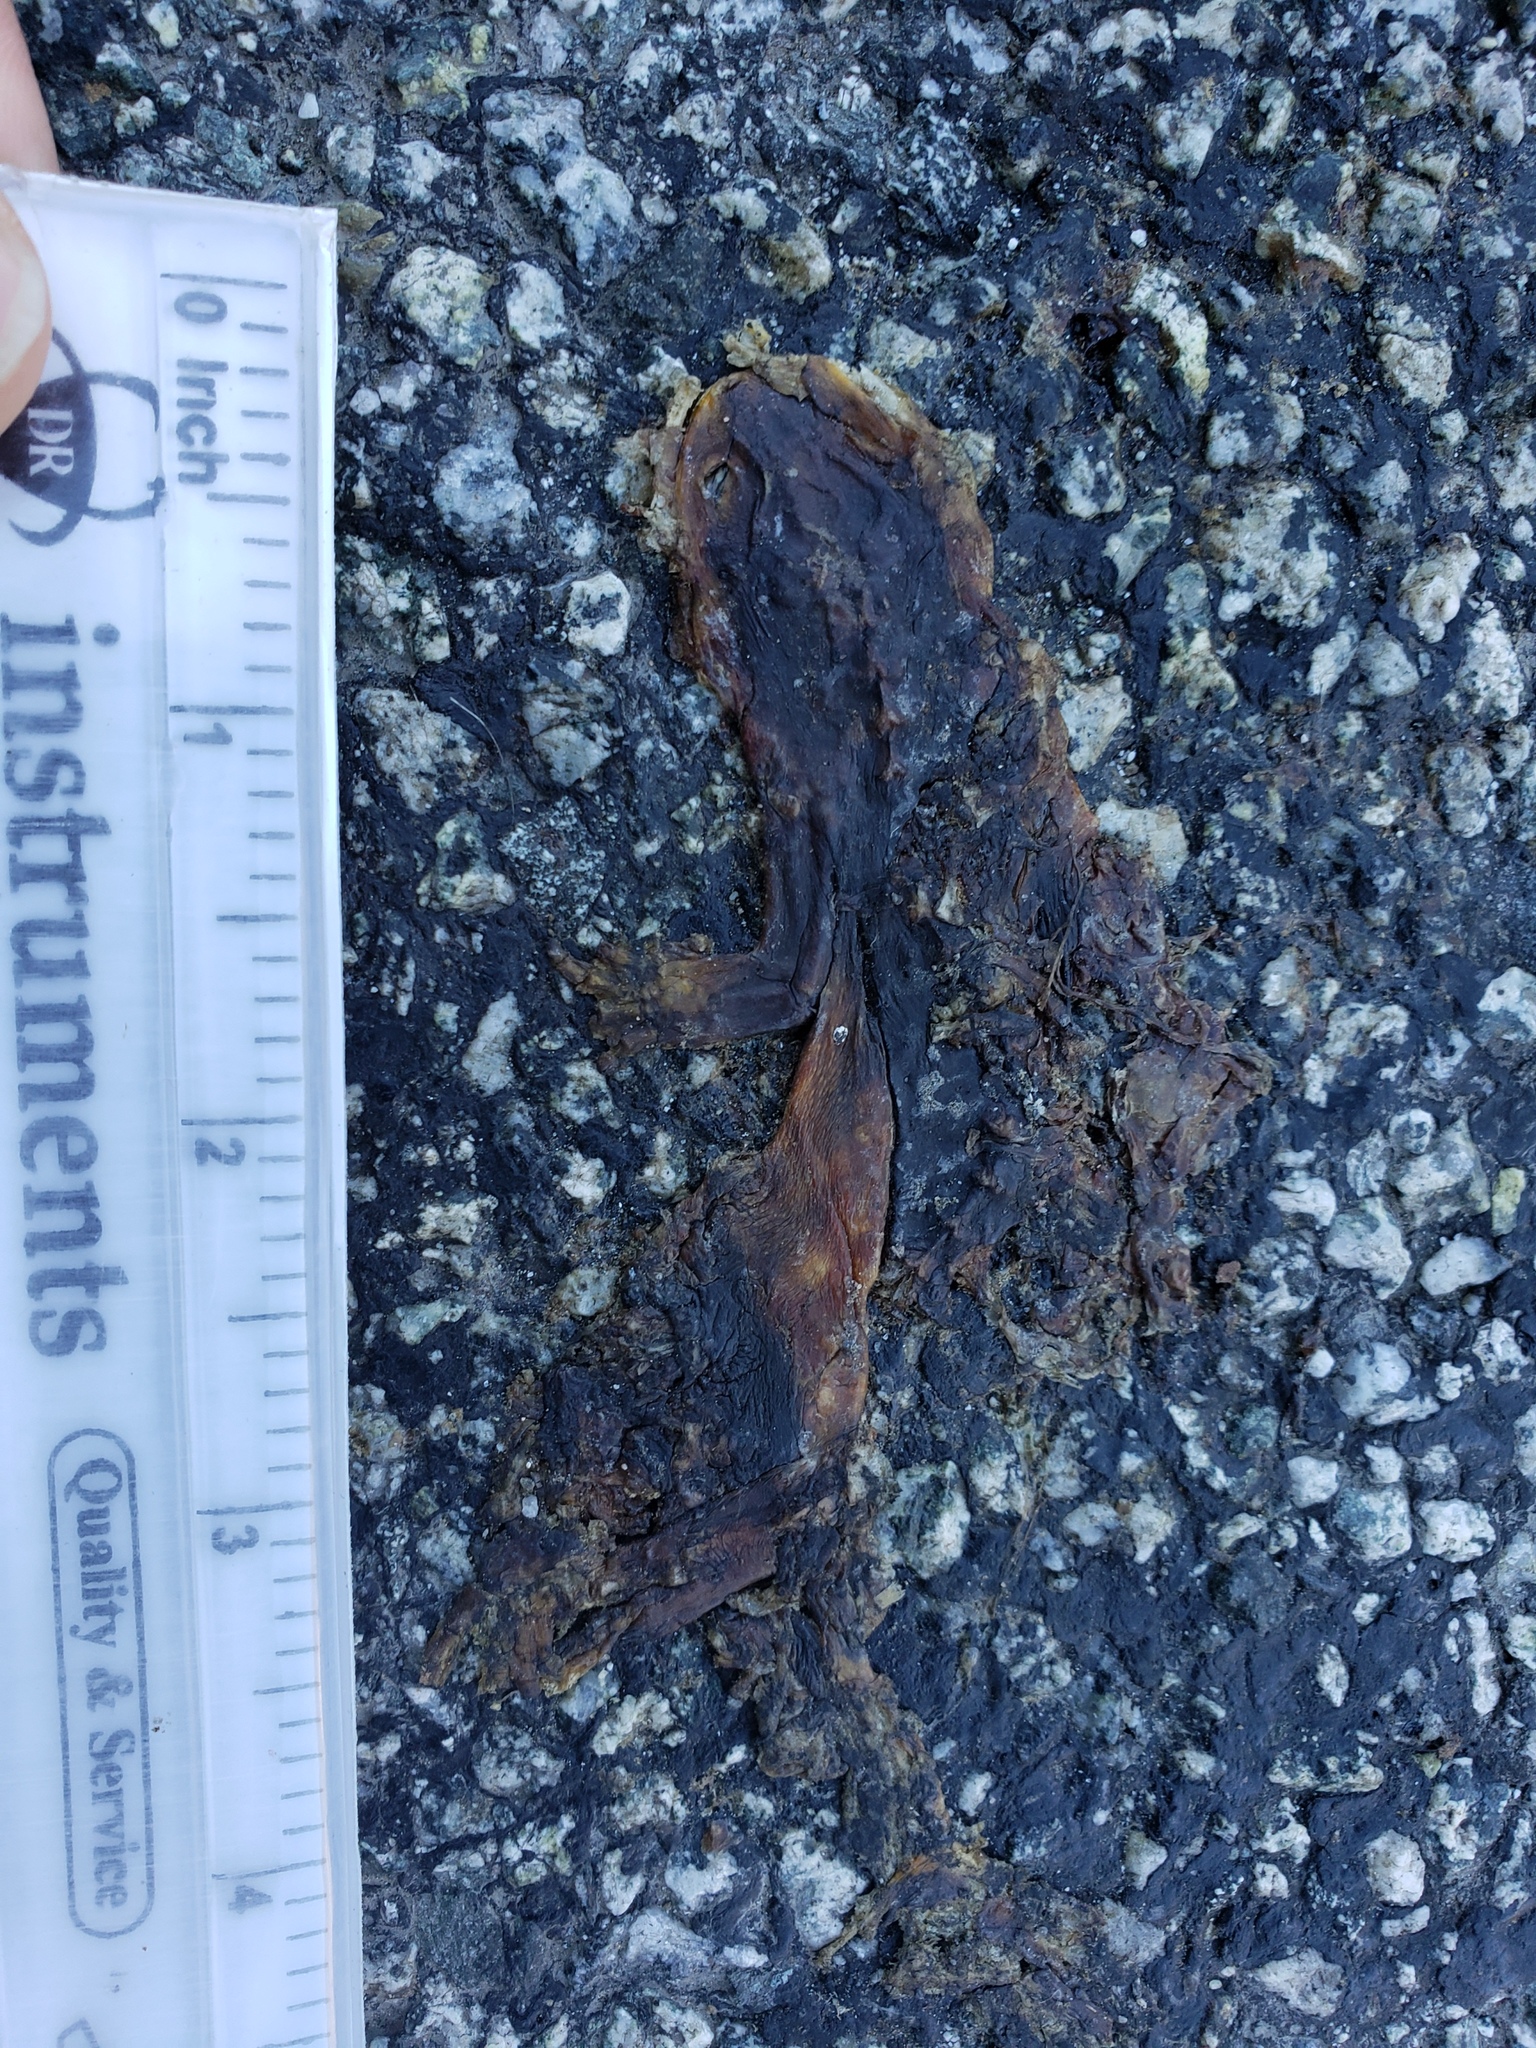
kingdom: Animalia
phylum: Chordata
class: Amphibia
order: Caudata
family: Salamandridae
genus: Taricha
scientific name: Taricha
